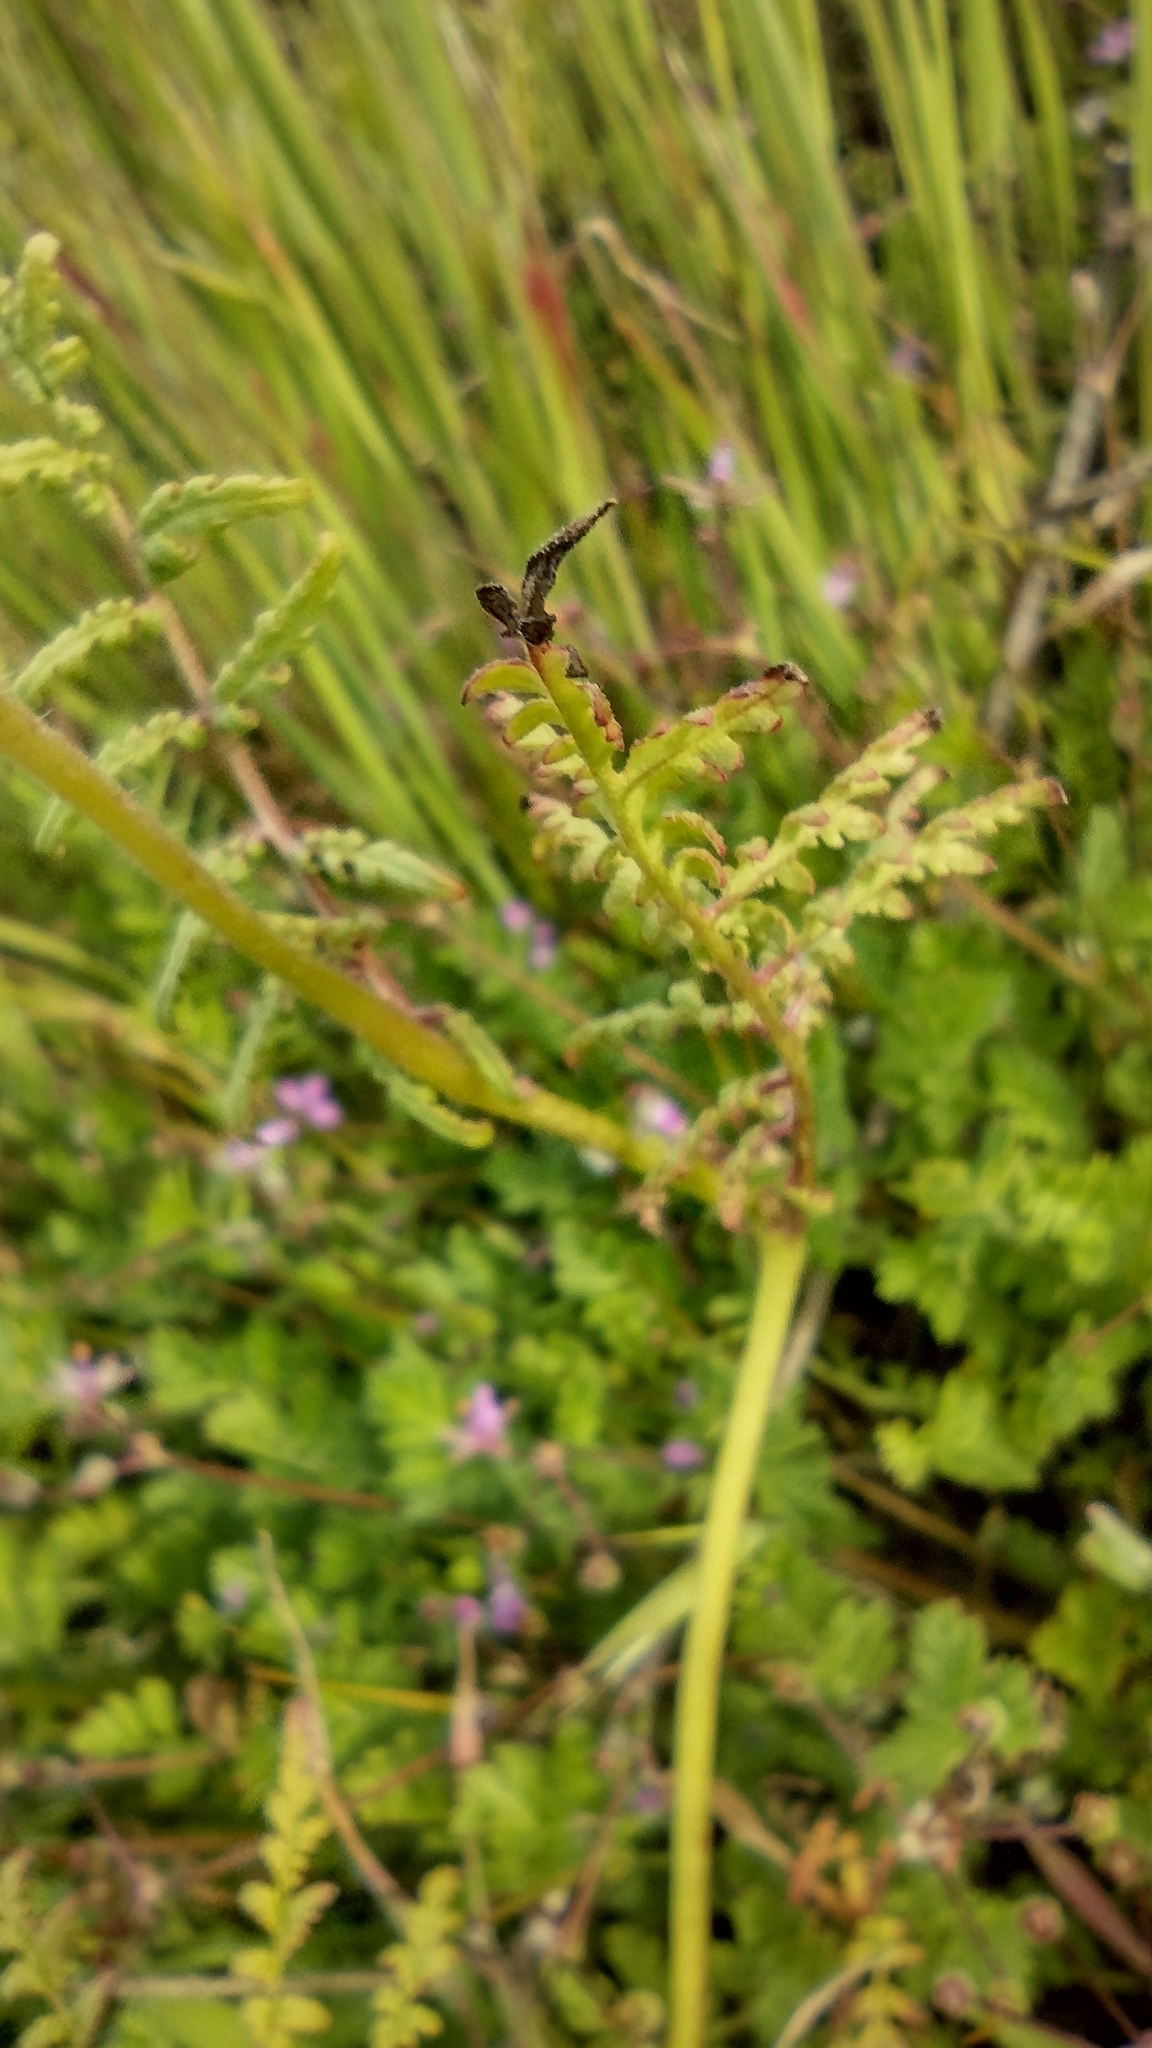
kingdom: Plantae
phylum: Tracheophyta
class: Magnoliopsida
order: Boraginales
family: Hydrophyllaceae
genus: Phacelia
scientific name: Phacelia tanacetifolia
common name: Phacelia
